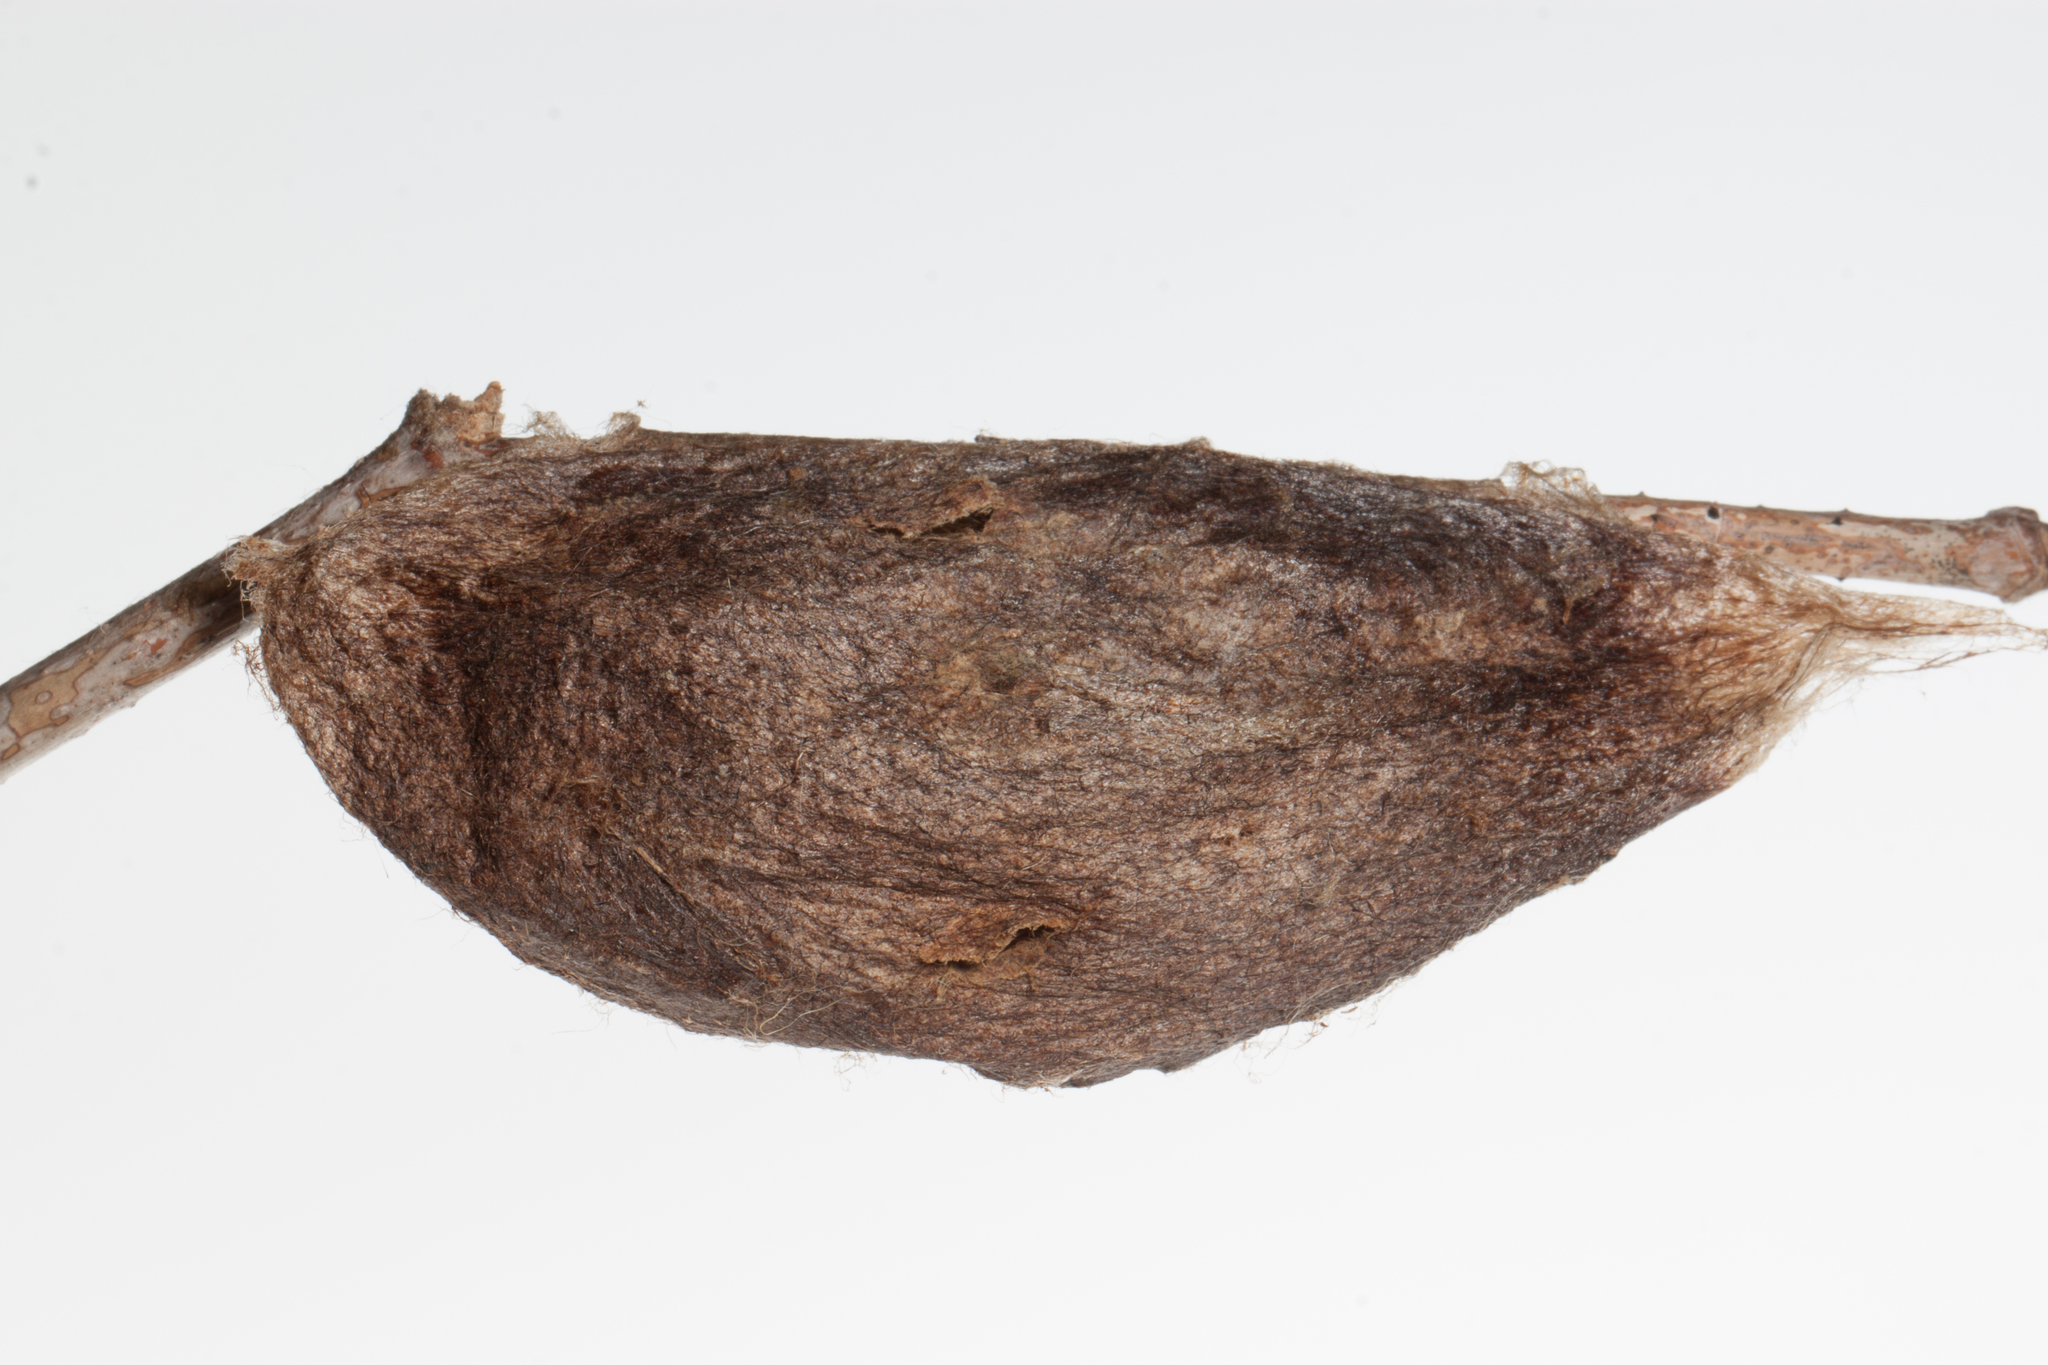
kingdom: Animalia
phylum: Arthropoda
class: Insecta
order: Lepidoptera
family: Saturniidae
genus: Hyalophora
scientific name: Hyalophora cecropia
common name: Cecropia silkmoth
